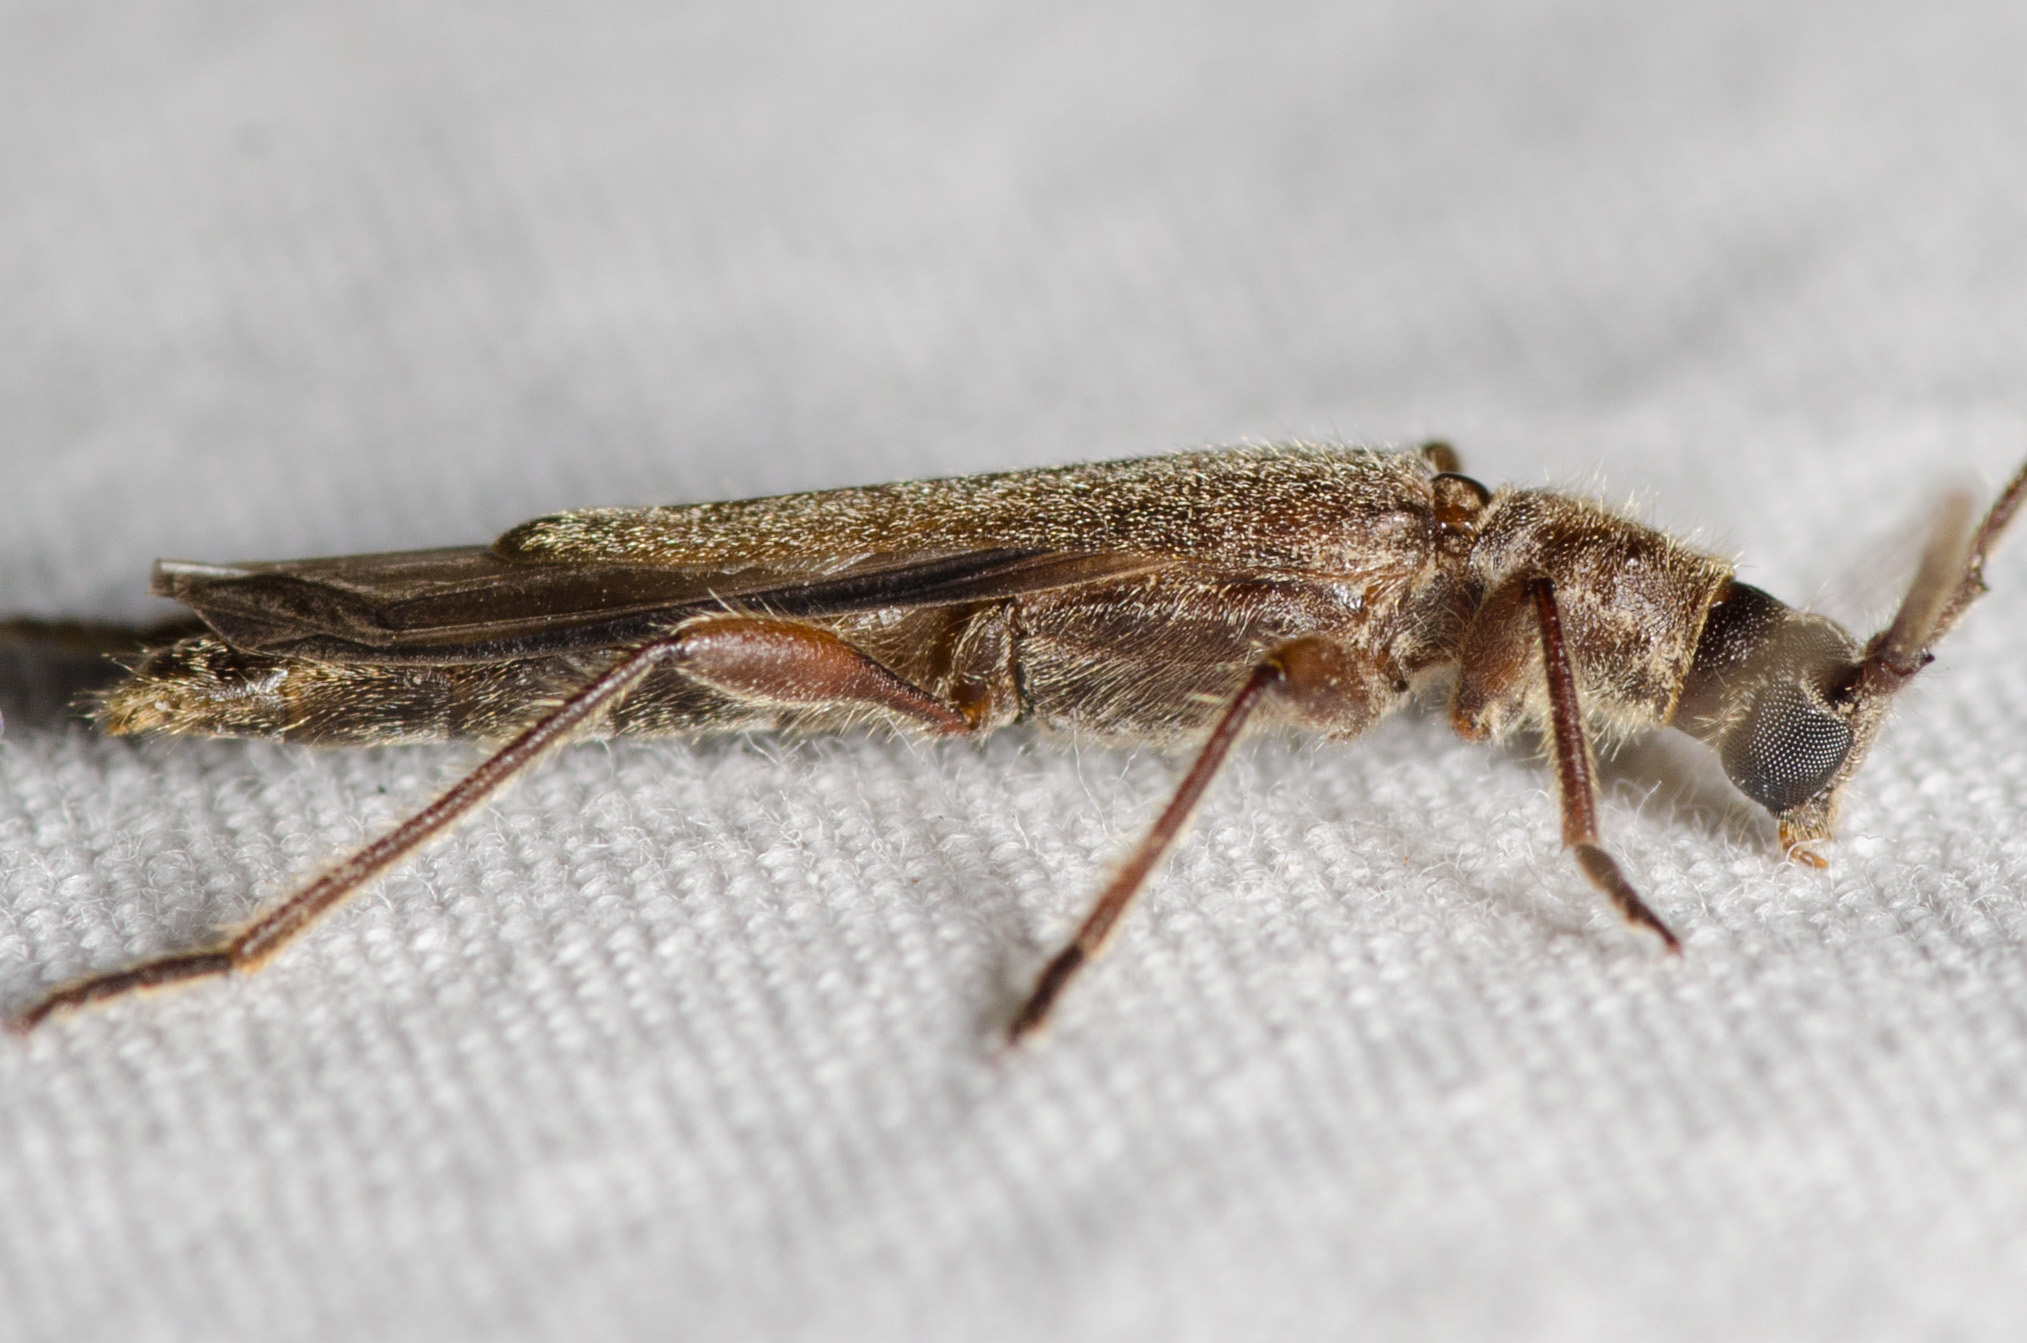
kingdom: Animalia
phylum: Arthropoda
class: Insecta
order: Coleoptera
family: Cerambycidae
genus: Styloxus
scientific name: Styloxus fulleri
